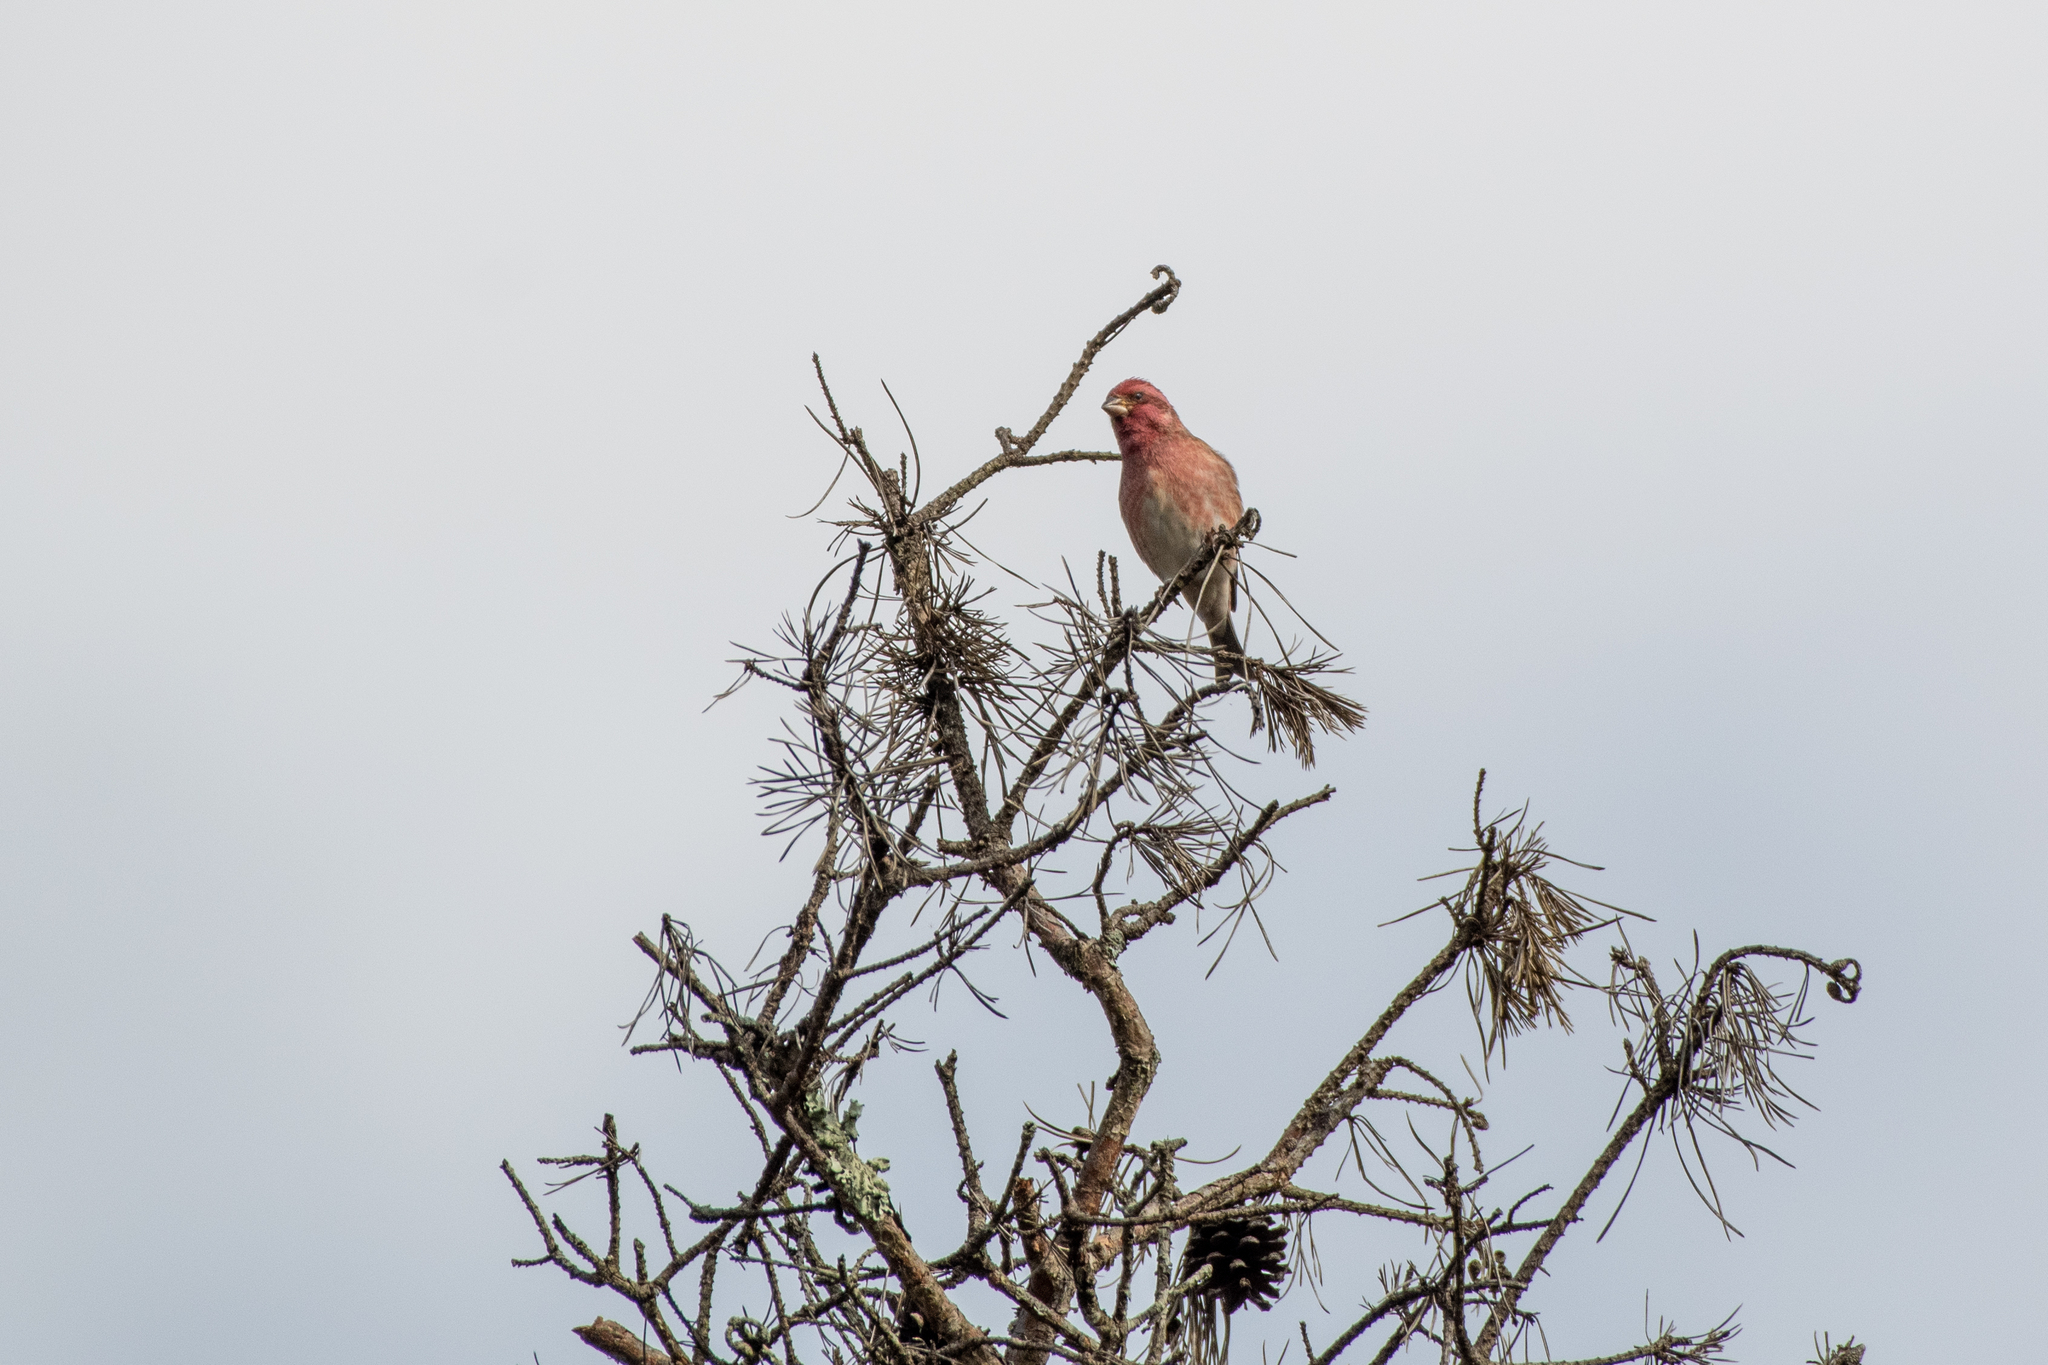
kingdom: Animalia
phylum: Chordata
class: Aves
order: Passeriformes
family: Fringillidae
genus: Haemorhous
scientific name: Haemorhous purpureus
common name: Purple finch
